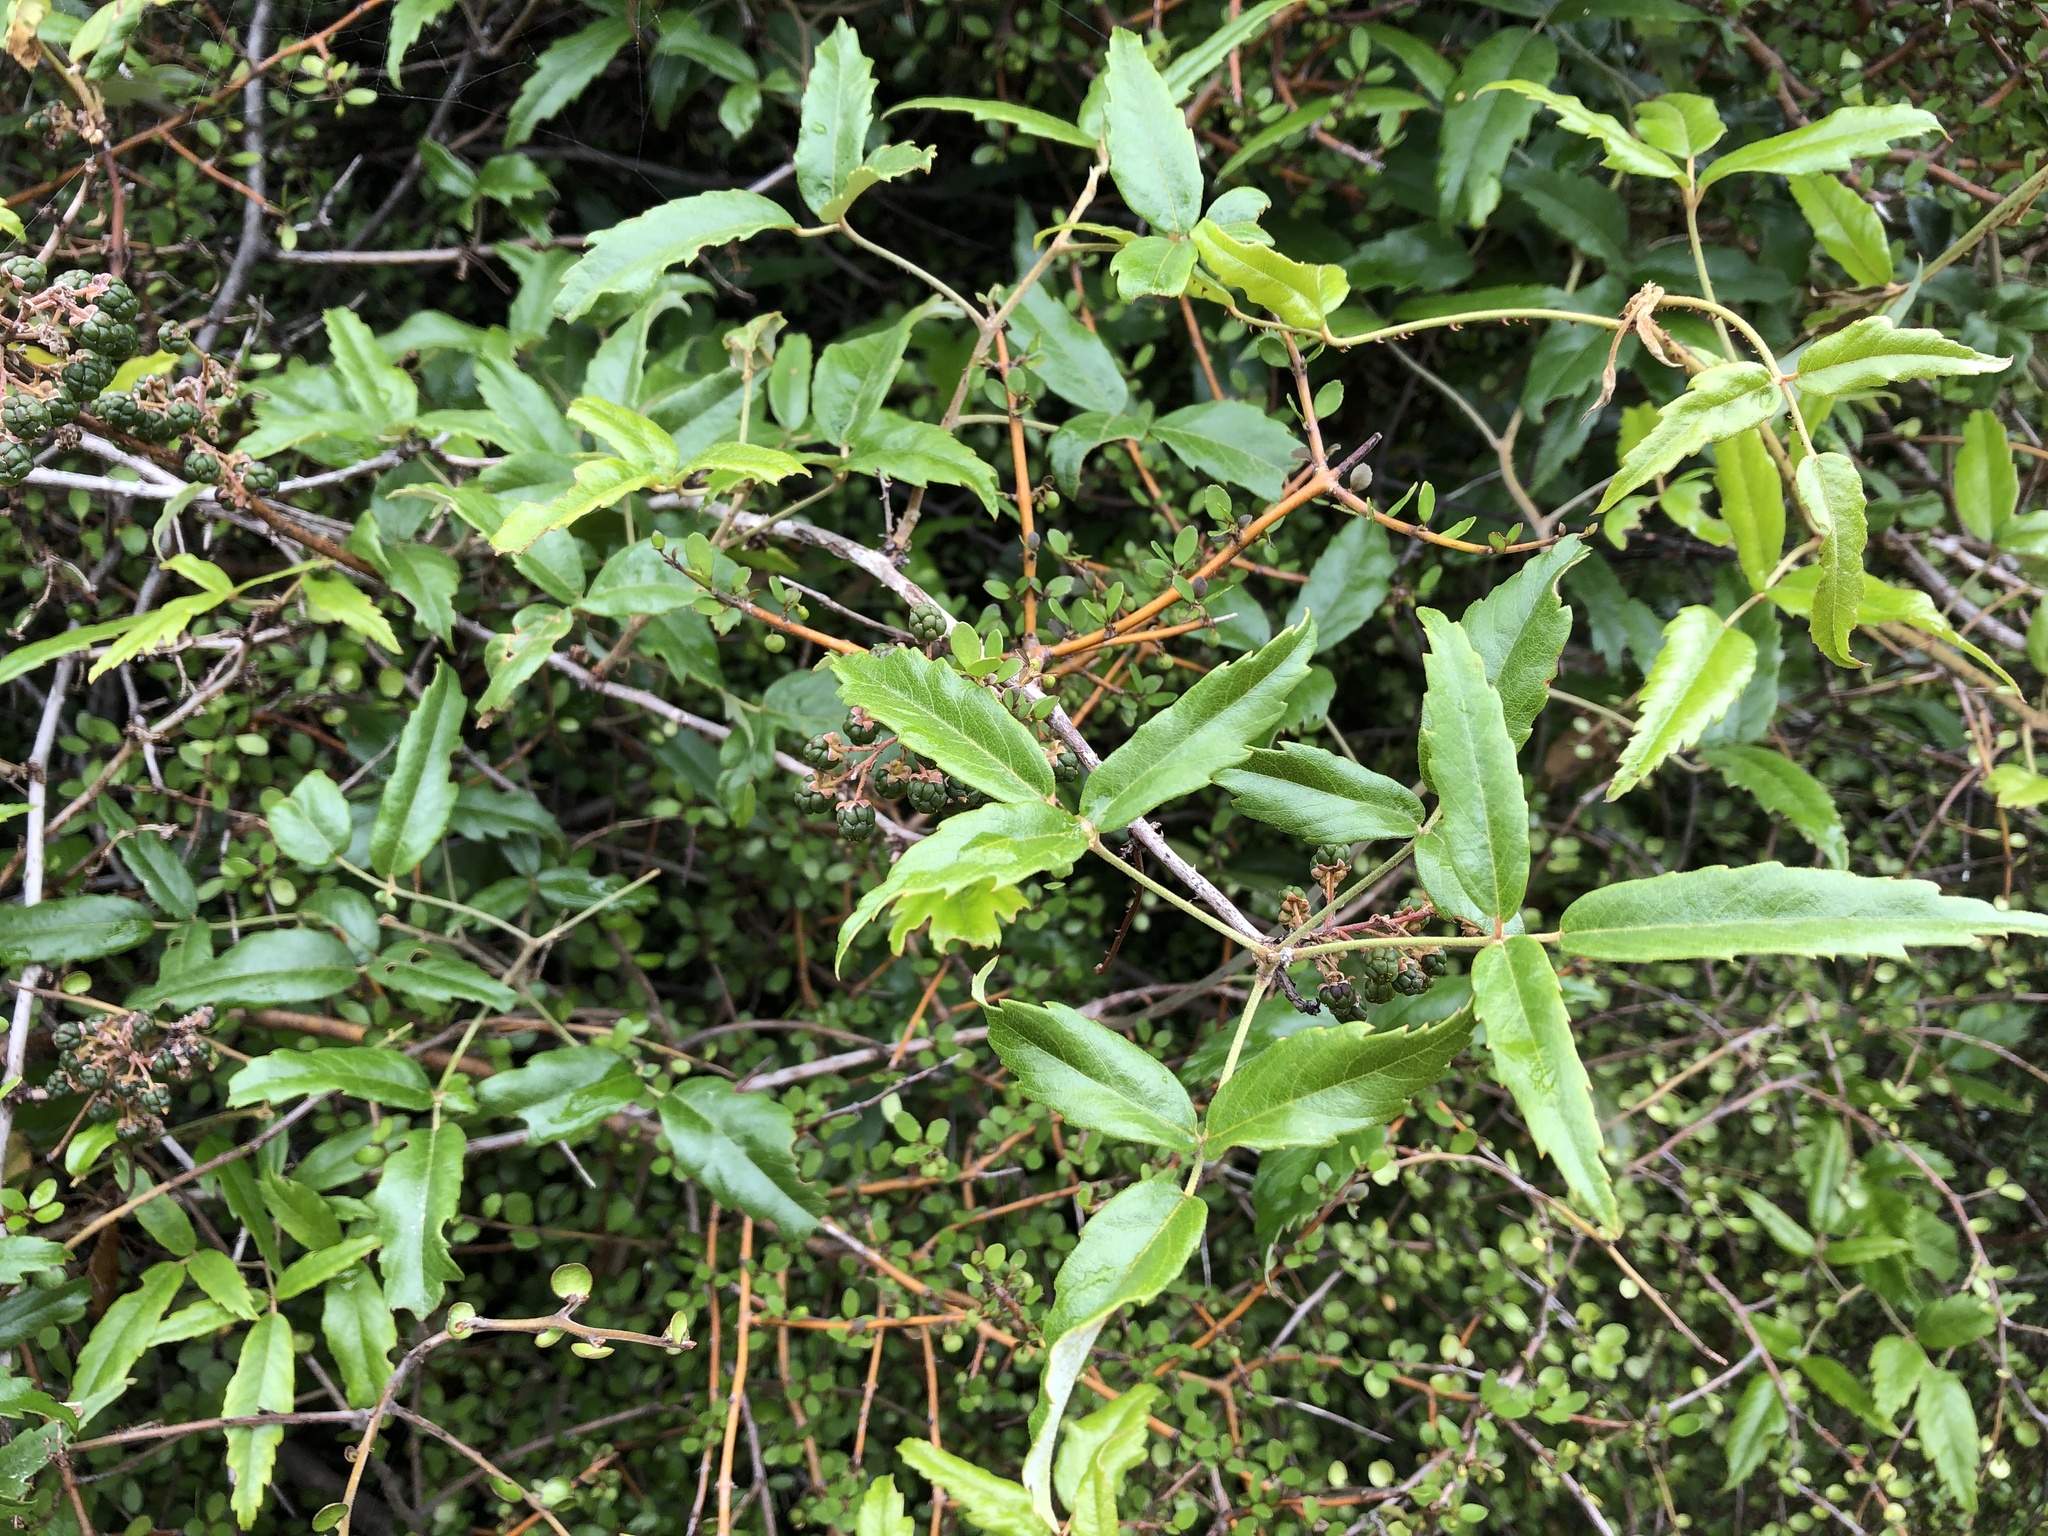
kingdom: Plantae
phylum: Tracheophyta
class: Magnoliopsida
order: Rosales
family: Rosaceae
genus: Rubus
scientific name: Rubus schmidelioides
